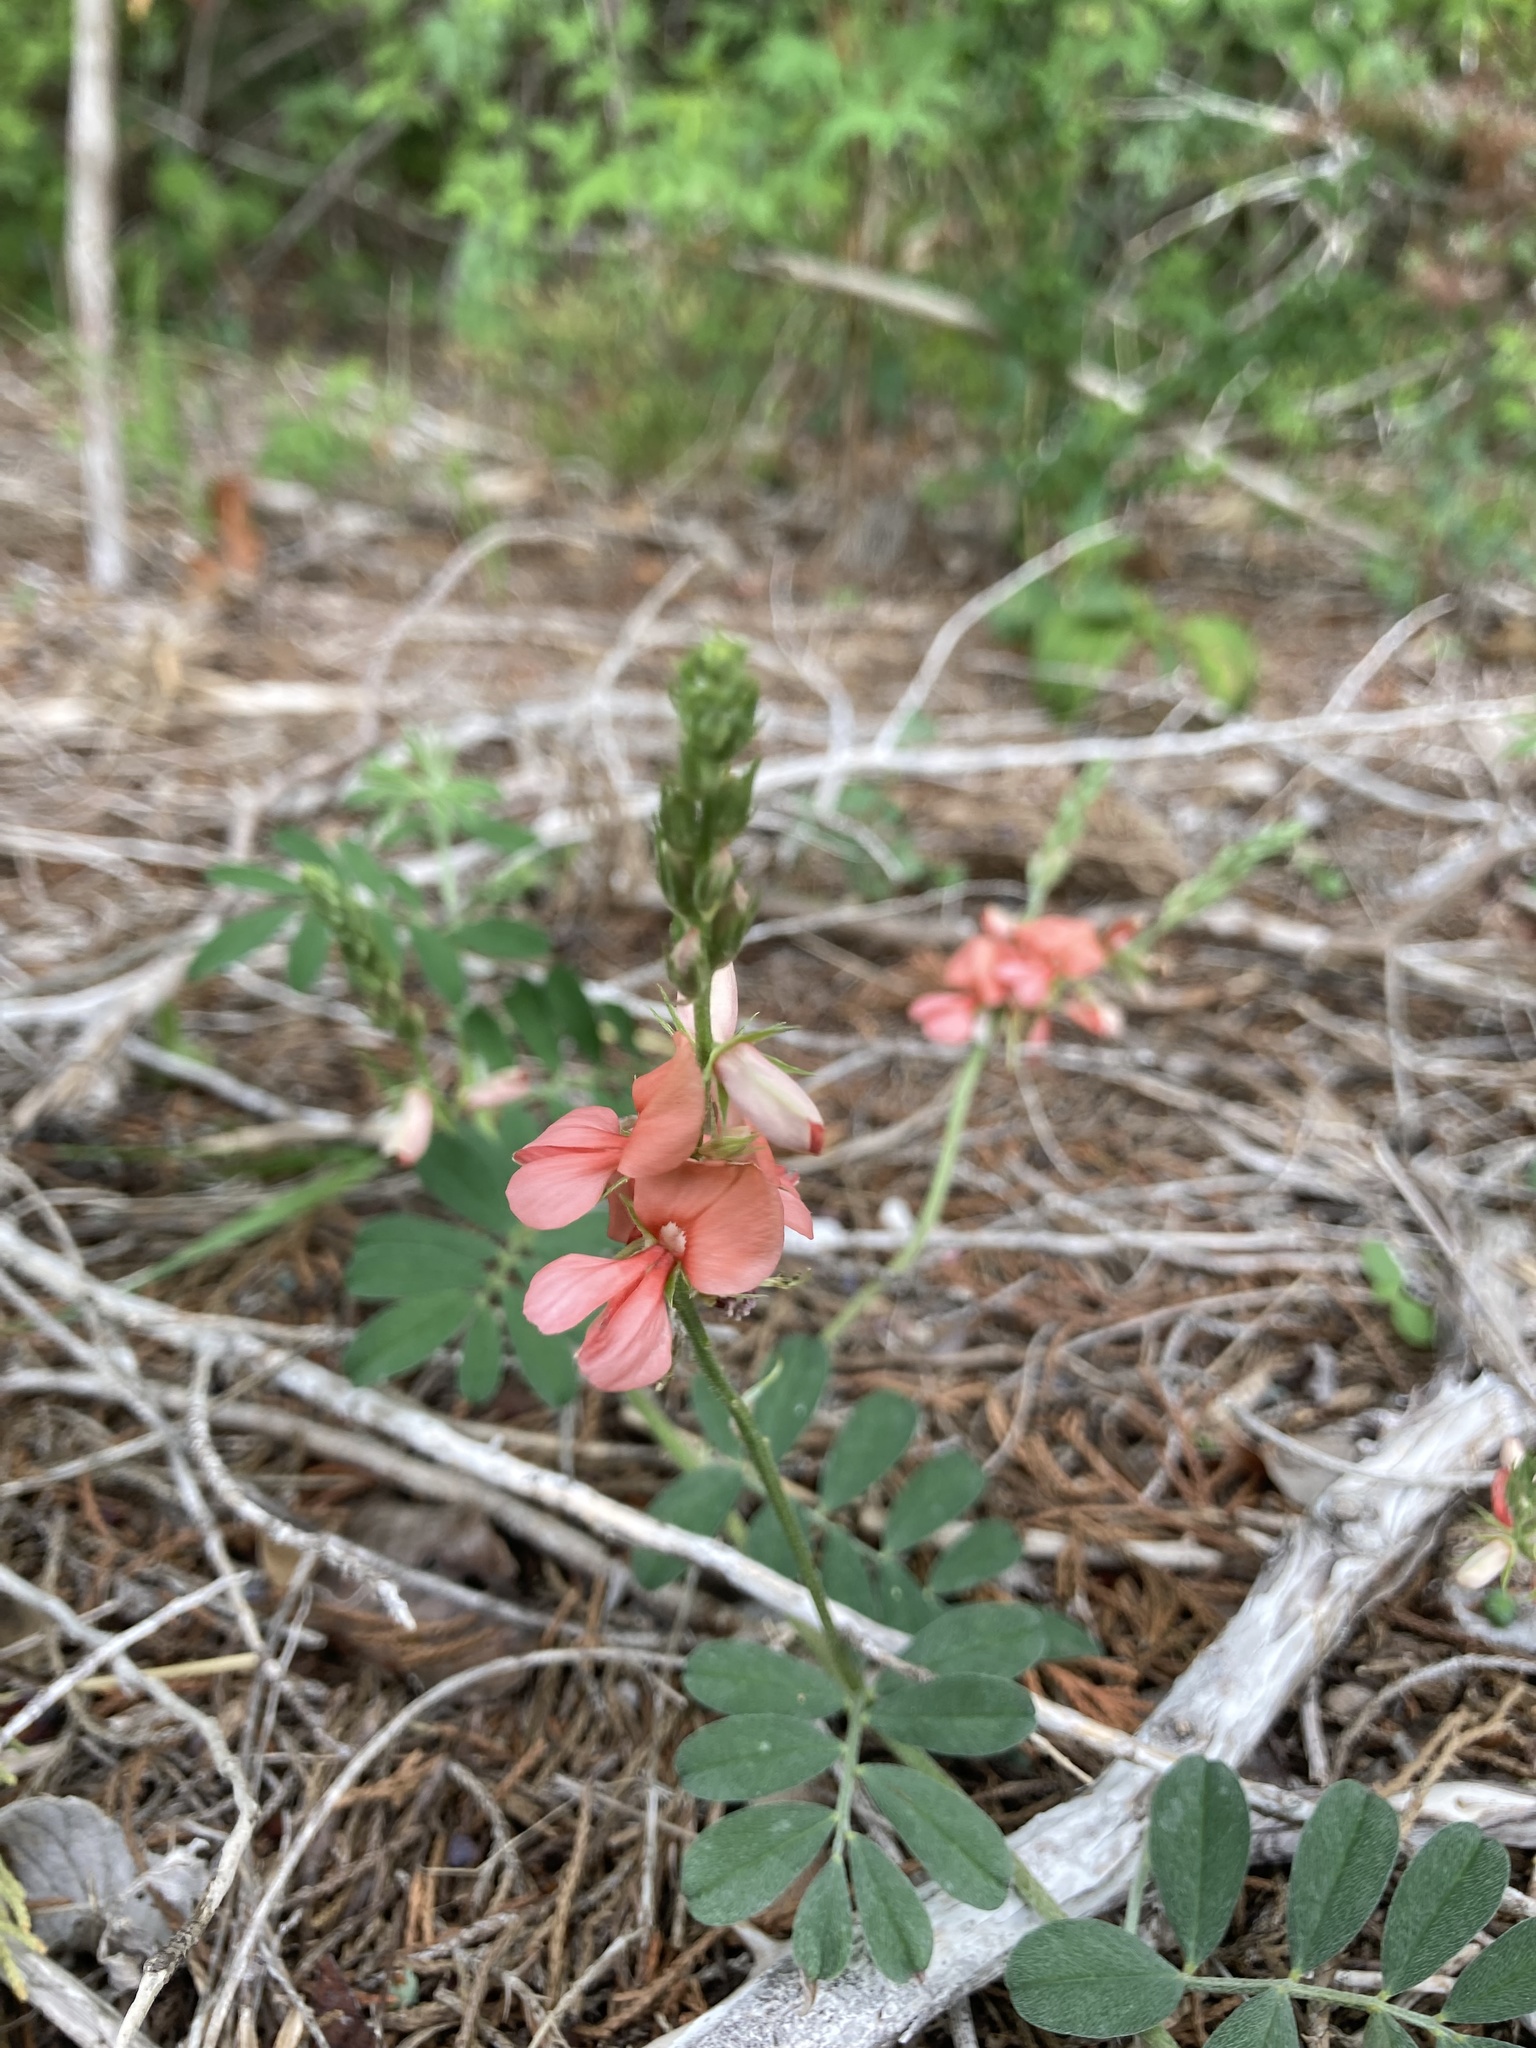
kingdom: Plantae
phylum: Tracheophyta
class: Magnoliopsida
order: Fabales
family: Fabaceae
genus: Indigofera
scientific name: Indigofera miniata
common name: Coast indigo
